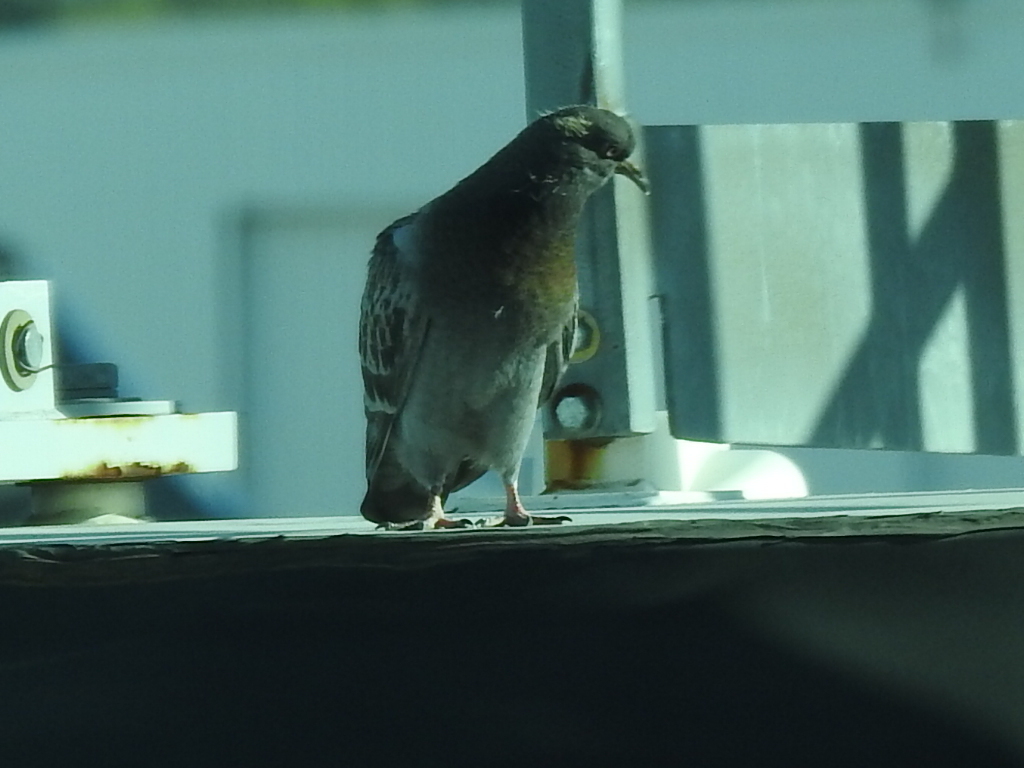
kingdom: Animalia
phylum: Chordata
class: Aves
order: Columbiformes
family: Columbidae
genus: Columba
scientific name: Columba livia
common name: Rock pigeon
